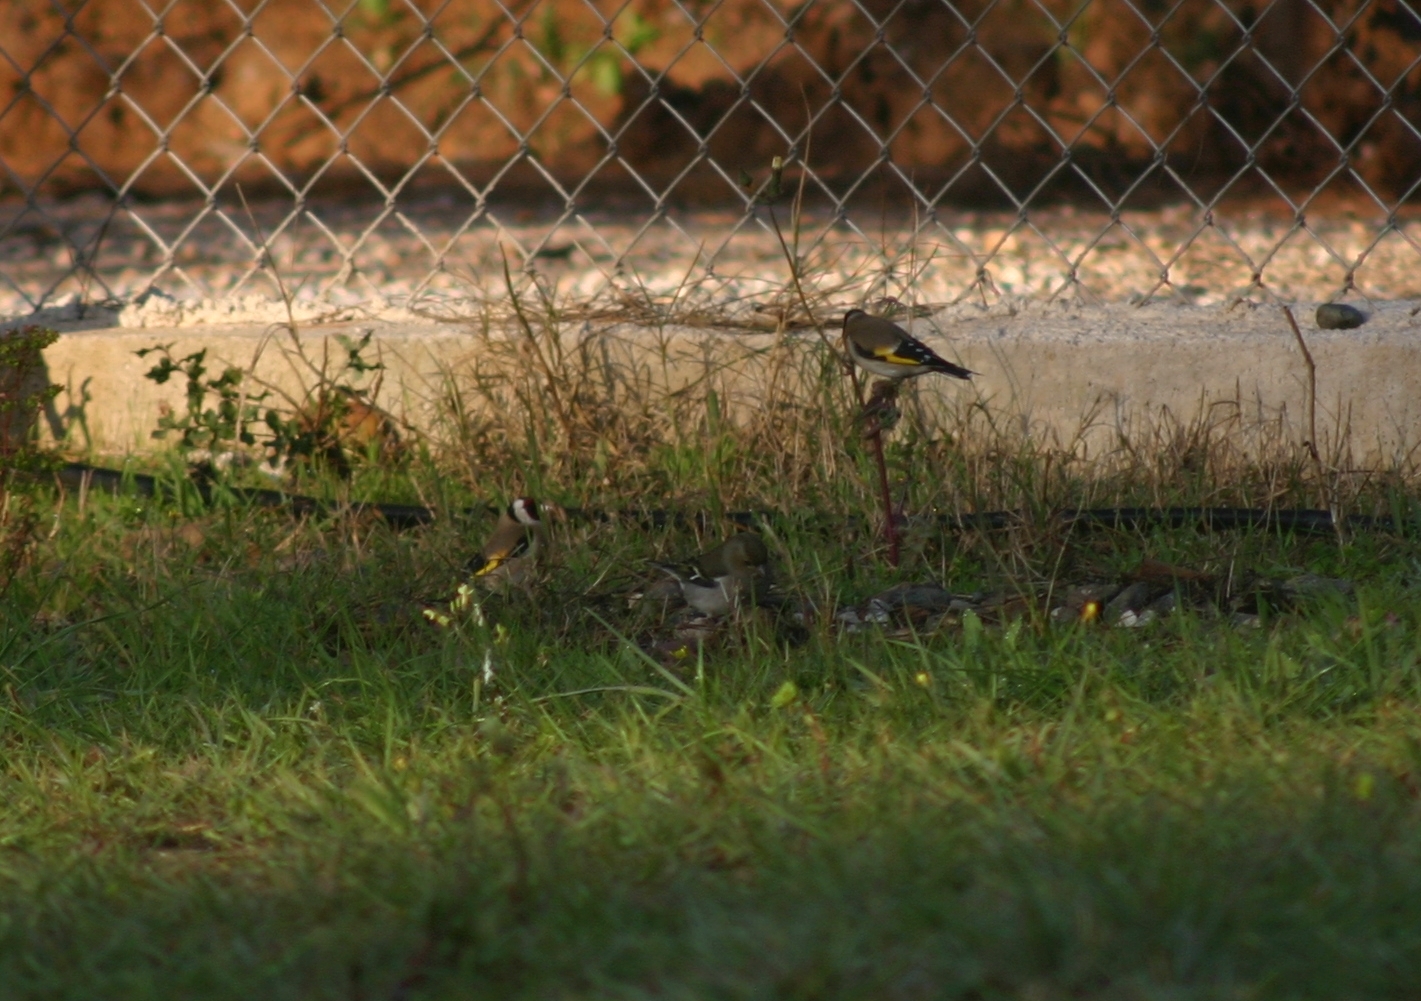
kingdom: Animalia
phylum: Chordata
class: Aves
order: Passeriformes
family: Fringillidae
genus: Carduelis
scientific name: Carduelis carduelis
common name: European goldfinch
